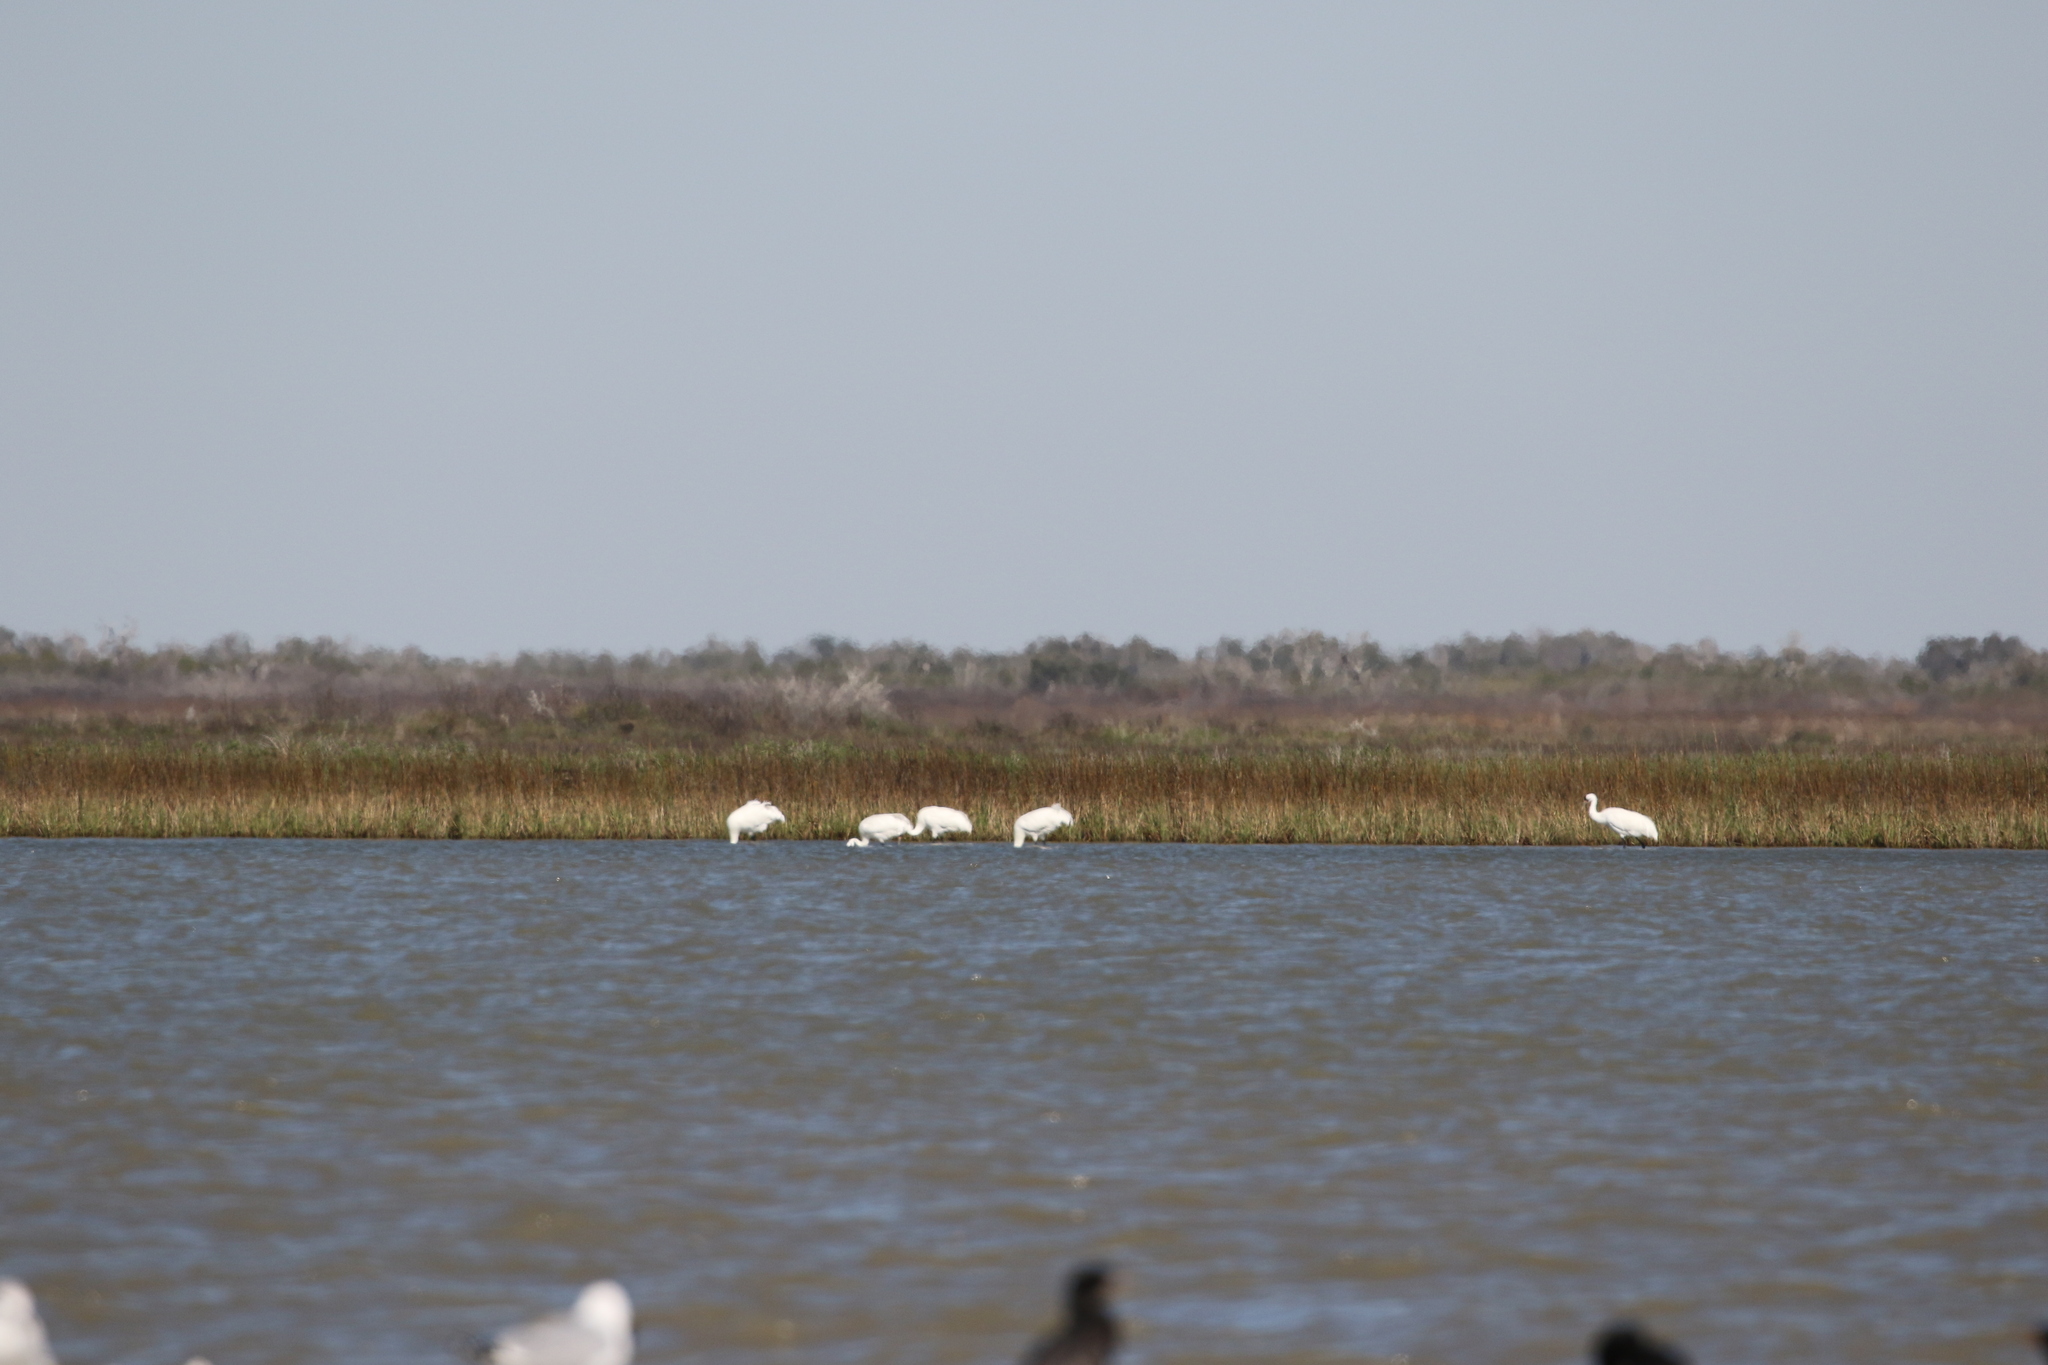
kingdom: Animalia
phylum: Chordata
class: Aves
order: Gruiformes
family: Gruidae
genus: Grus
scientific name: Grus americana
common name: Whooping crane
